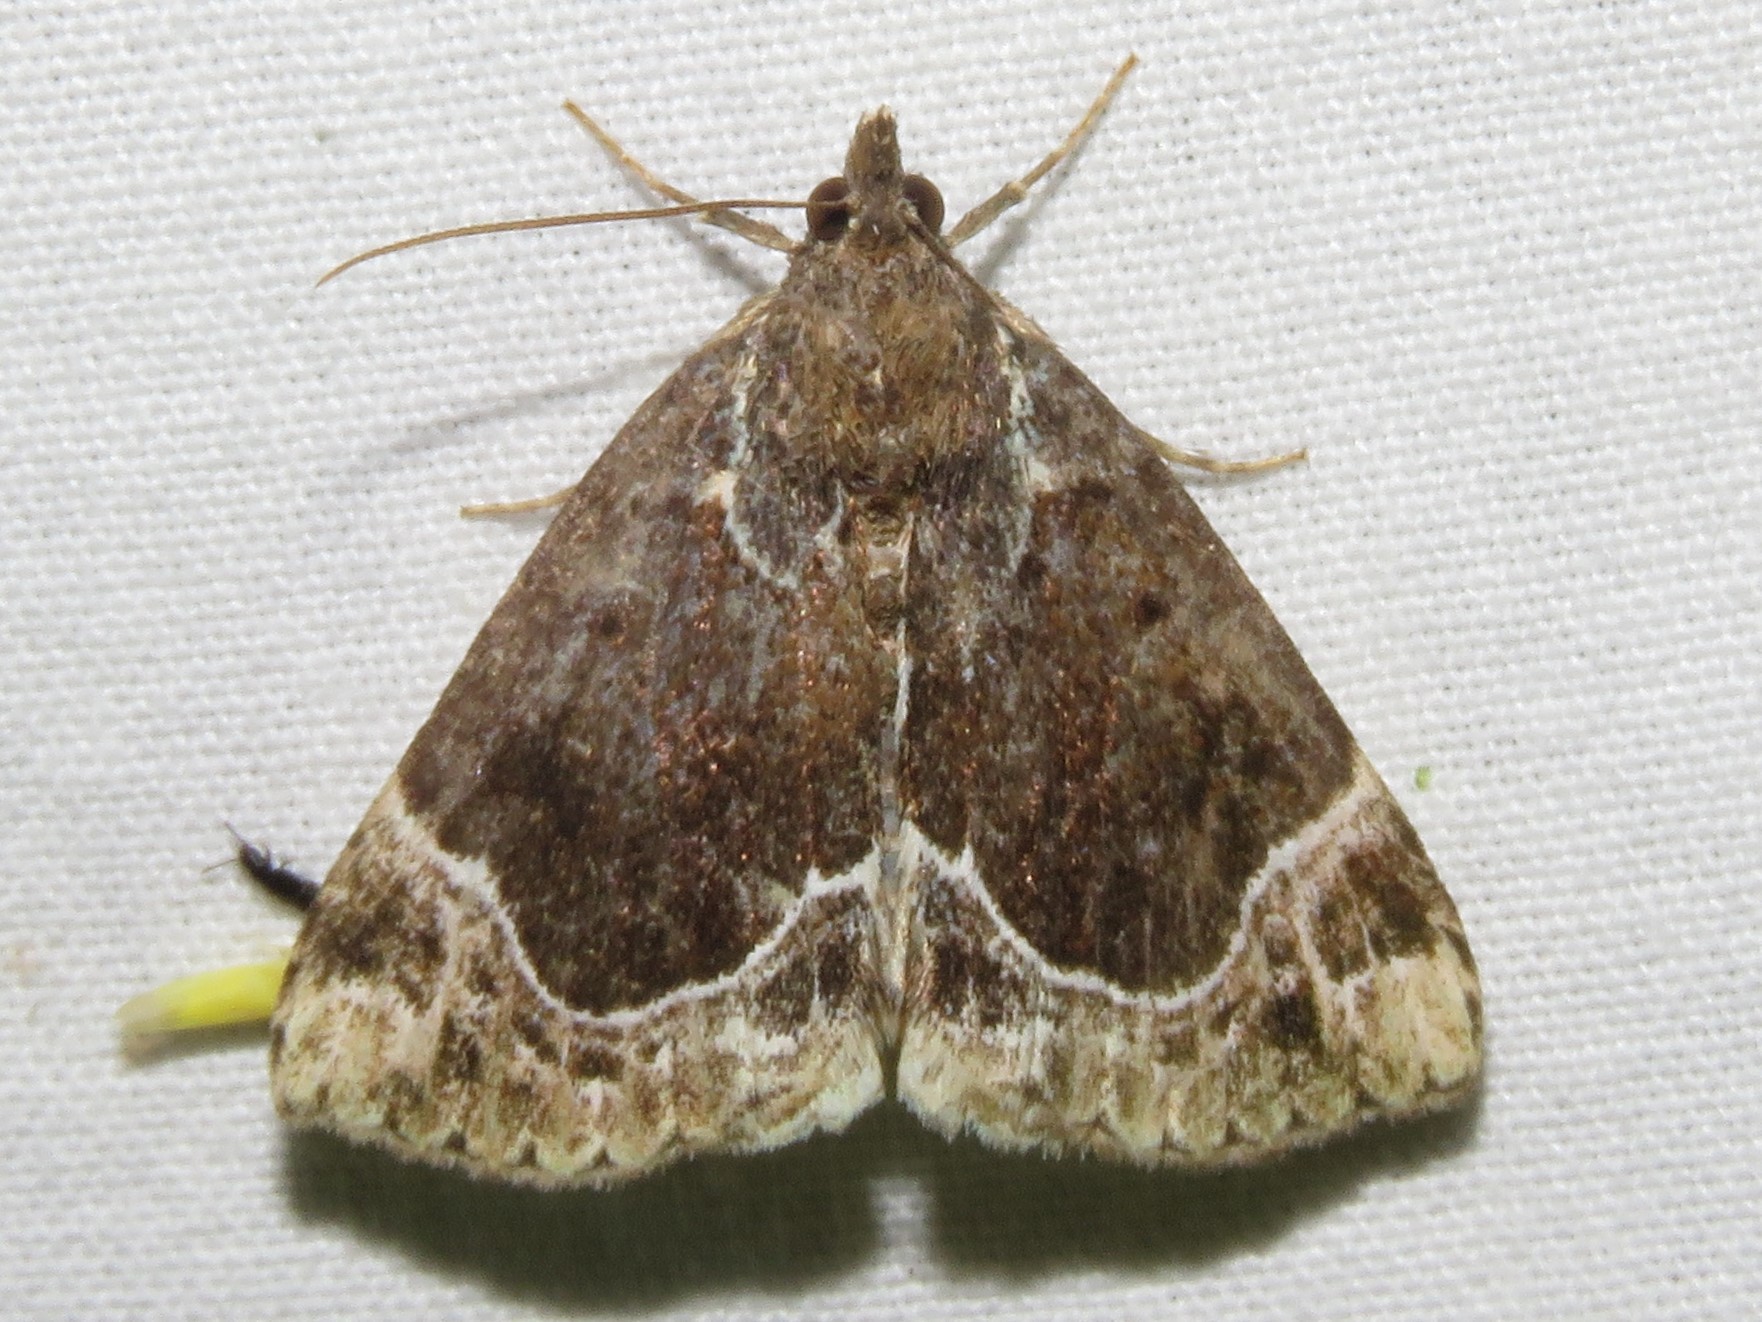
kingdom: Animalia
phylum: Arthropoda
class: Insecta
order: Lepidoptera
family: Erebidae
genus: Hypena
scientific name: Hypena abalienalis
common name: White-lined snout
